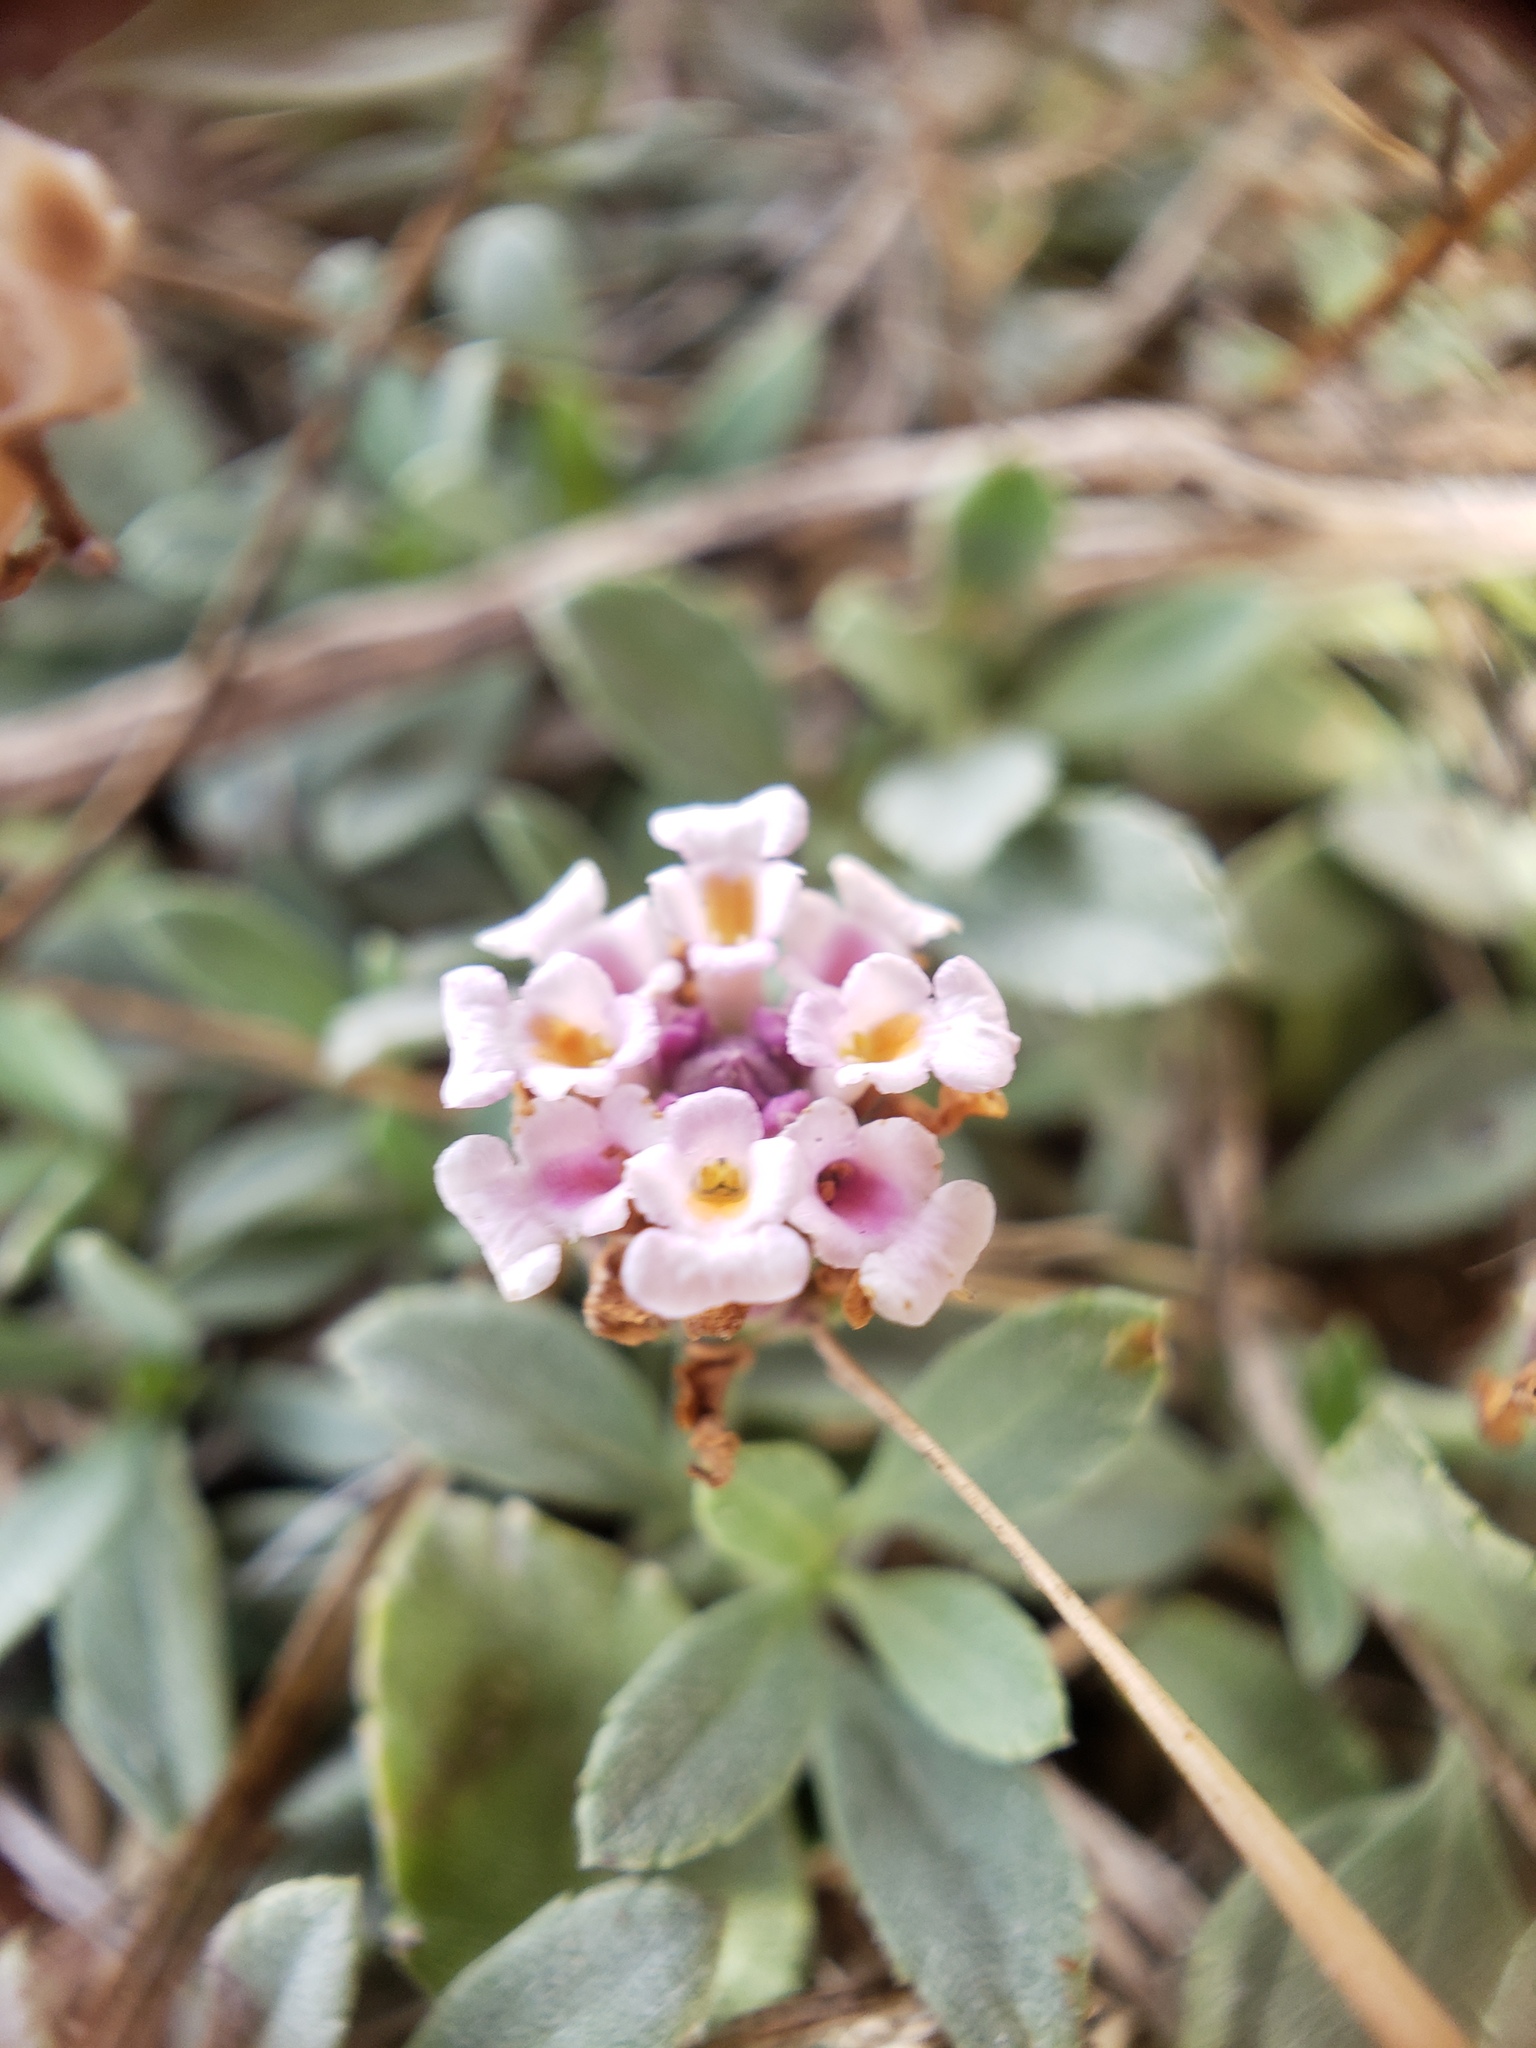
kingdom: Plantae
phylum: Tracheophyta
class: Magnoliopsida
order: Lamiales
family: Verbenaceae
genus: Phyla
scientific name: Phyla nodiflora
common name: Frogfruit
